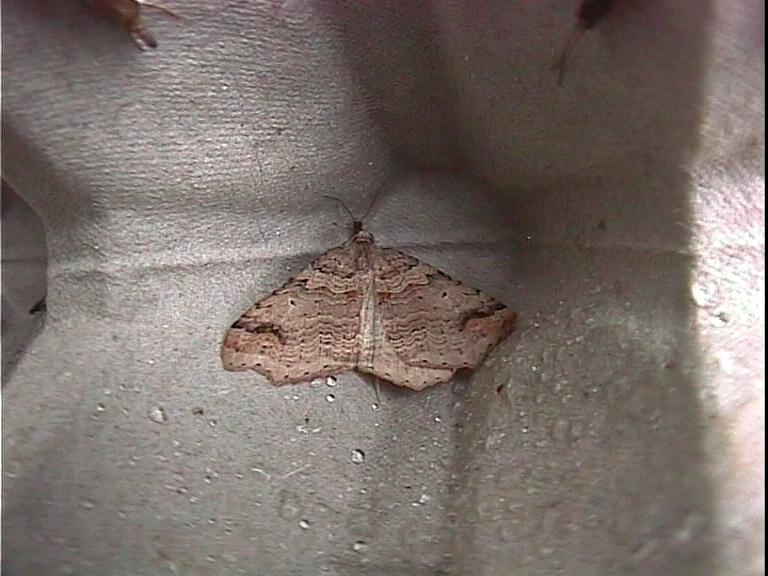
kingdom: Animalia
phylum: Arthropoda
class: Insecta
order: Lepidoptera
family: Geometridae
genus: Austrocidaria
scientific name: Austrocidaria parora
